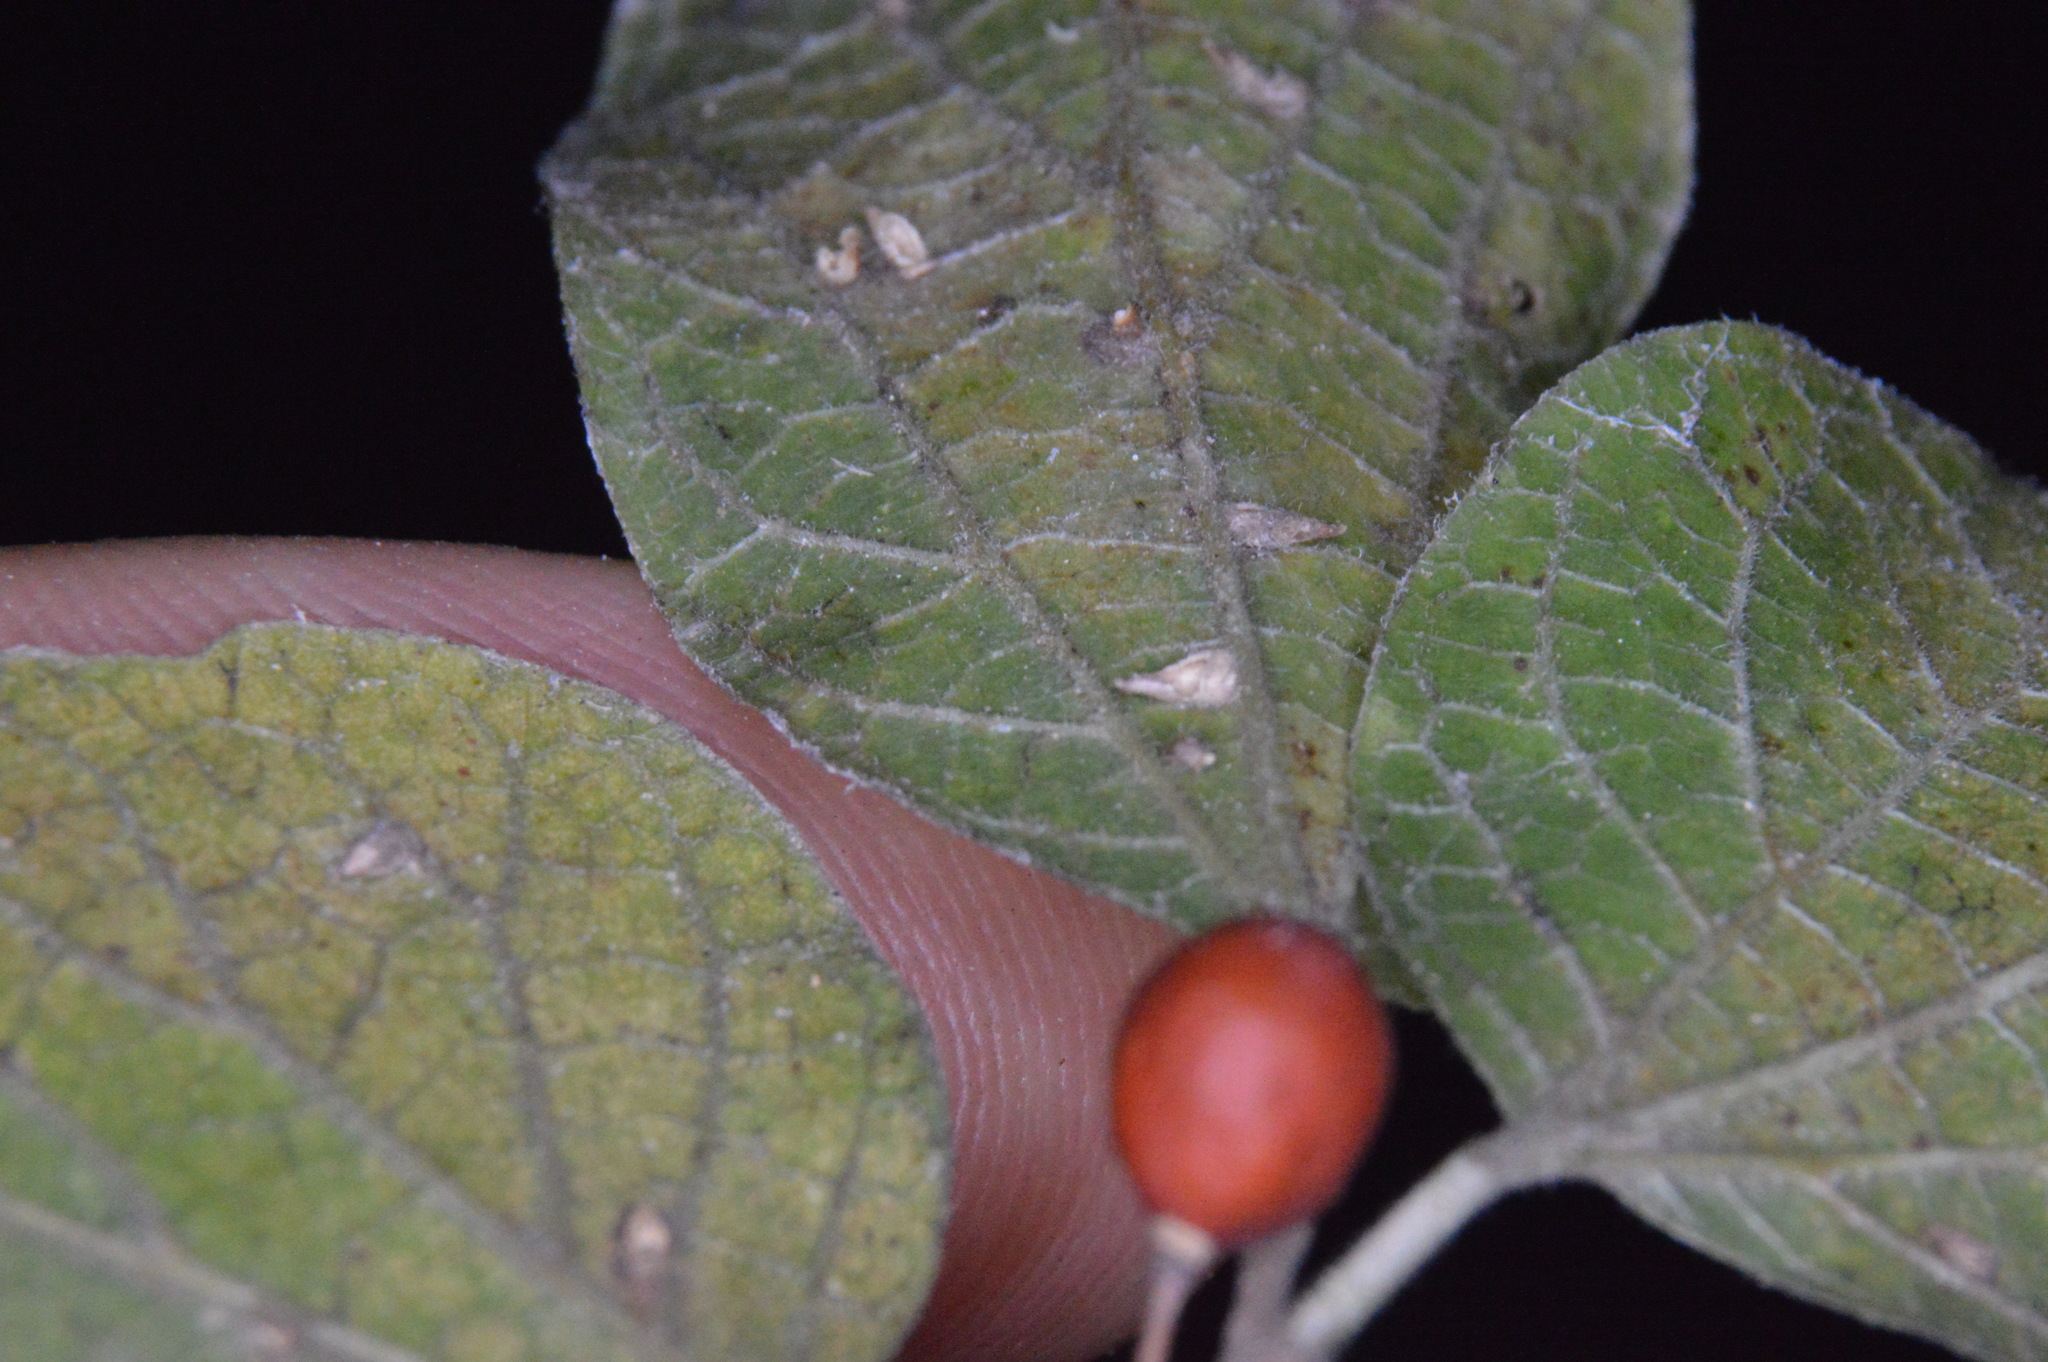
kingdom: Animalia
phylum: Arthropoda
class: Insecta
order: Diptera
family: Cecidomyiidae
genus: Celticecis
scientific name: Celticecis supina
